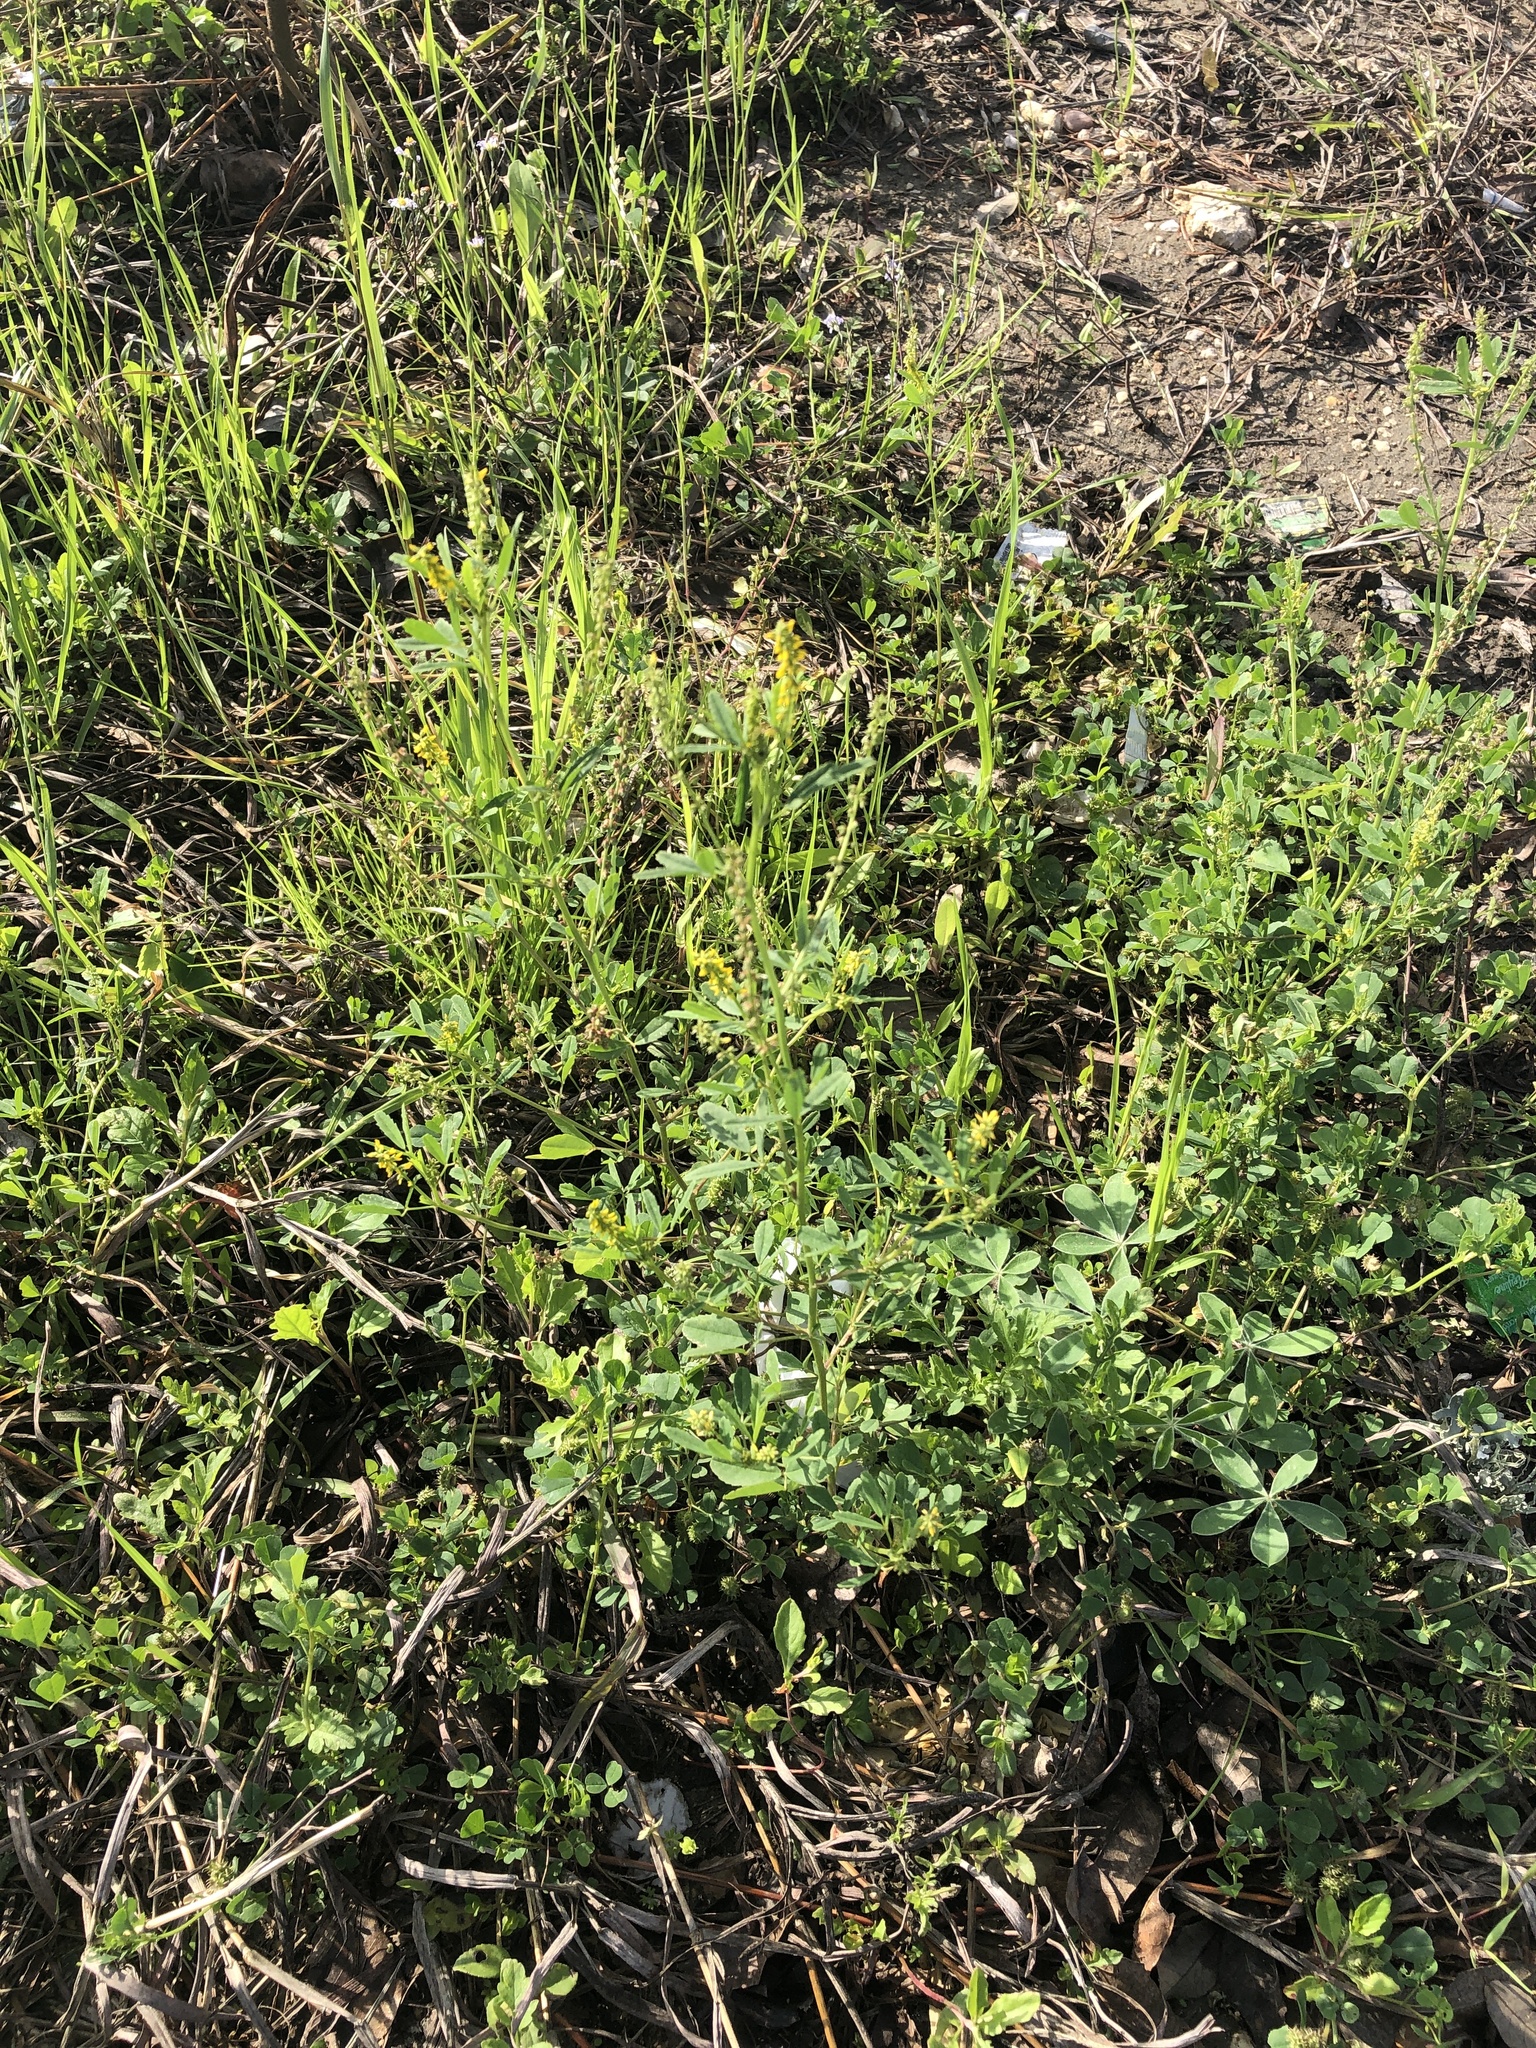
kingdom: Plantae
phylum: Tracheophyta
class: Magnoliopsida
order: Fabales
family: Fabaceae
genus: Melilotus
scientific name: Melilotus indicus
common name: Small melilot
